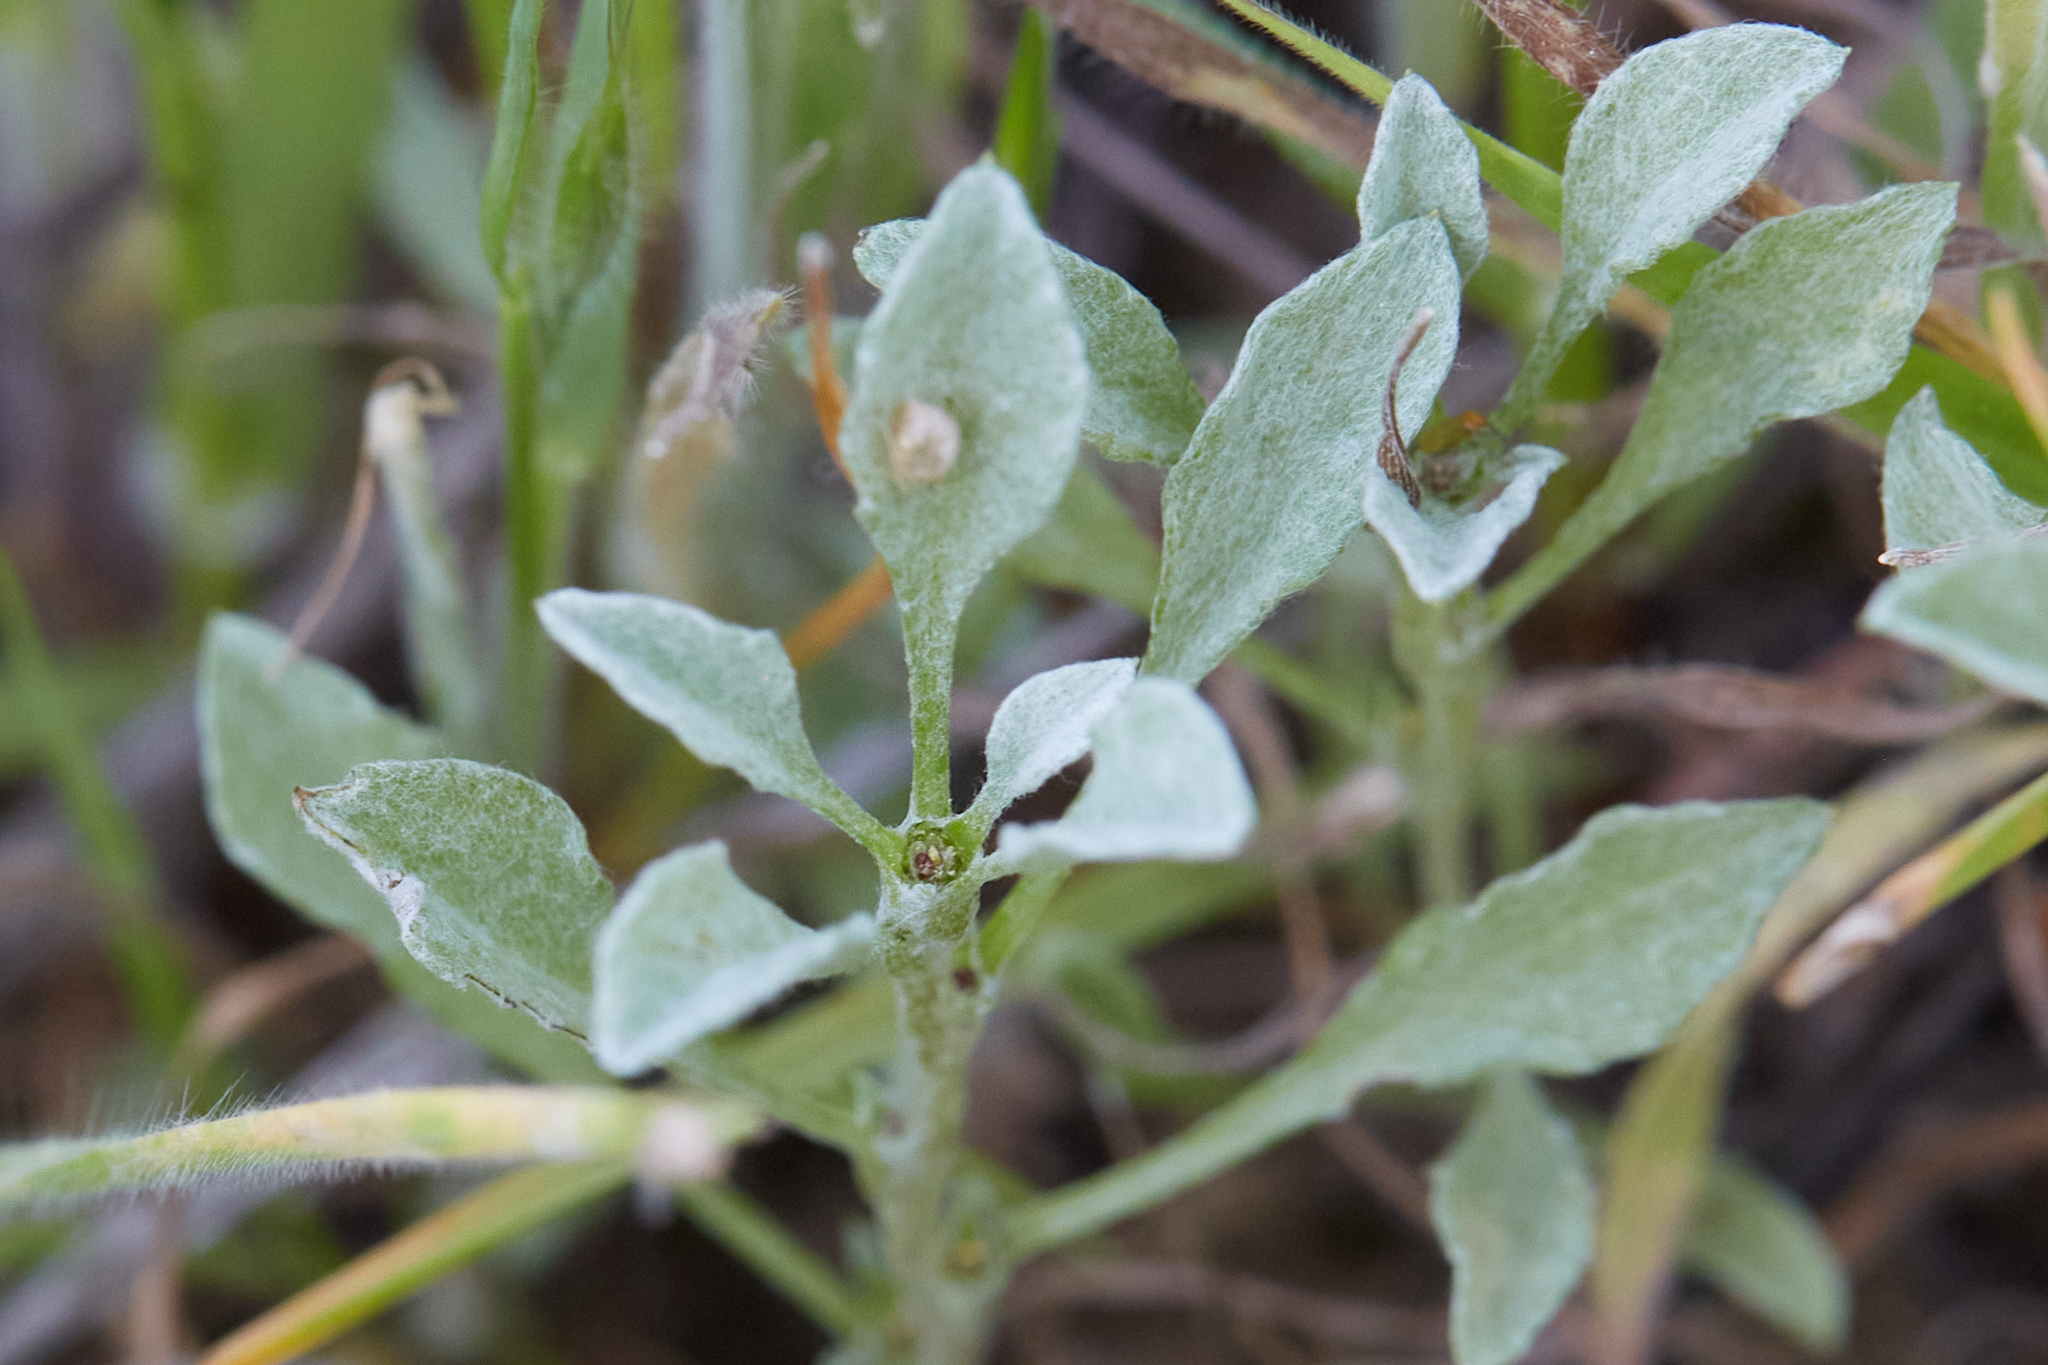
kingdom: Plantae
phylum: Tracheophyta
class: Magnoliopsida
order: Asterales
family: Asteraceae
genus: Hesperevax
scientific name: Hesperevax sparsiflora
